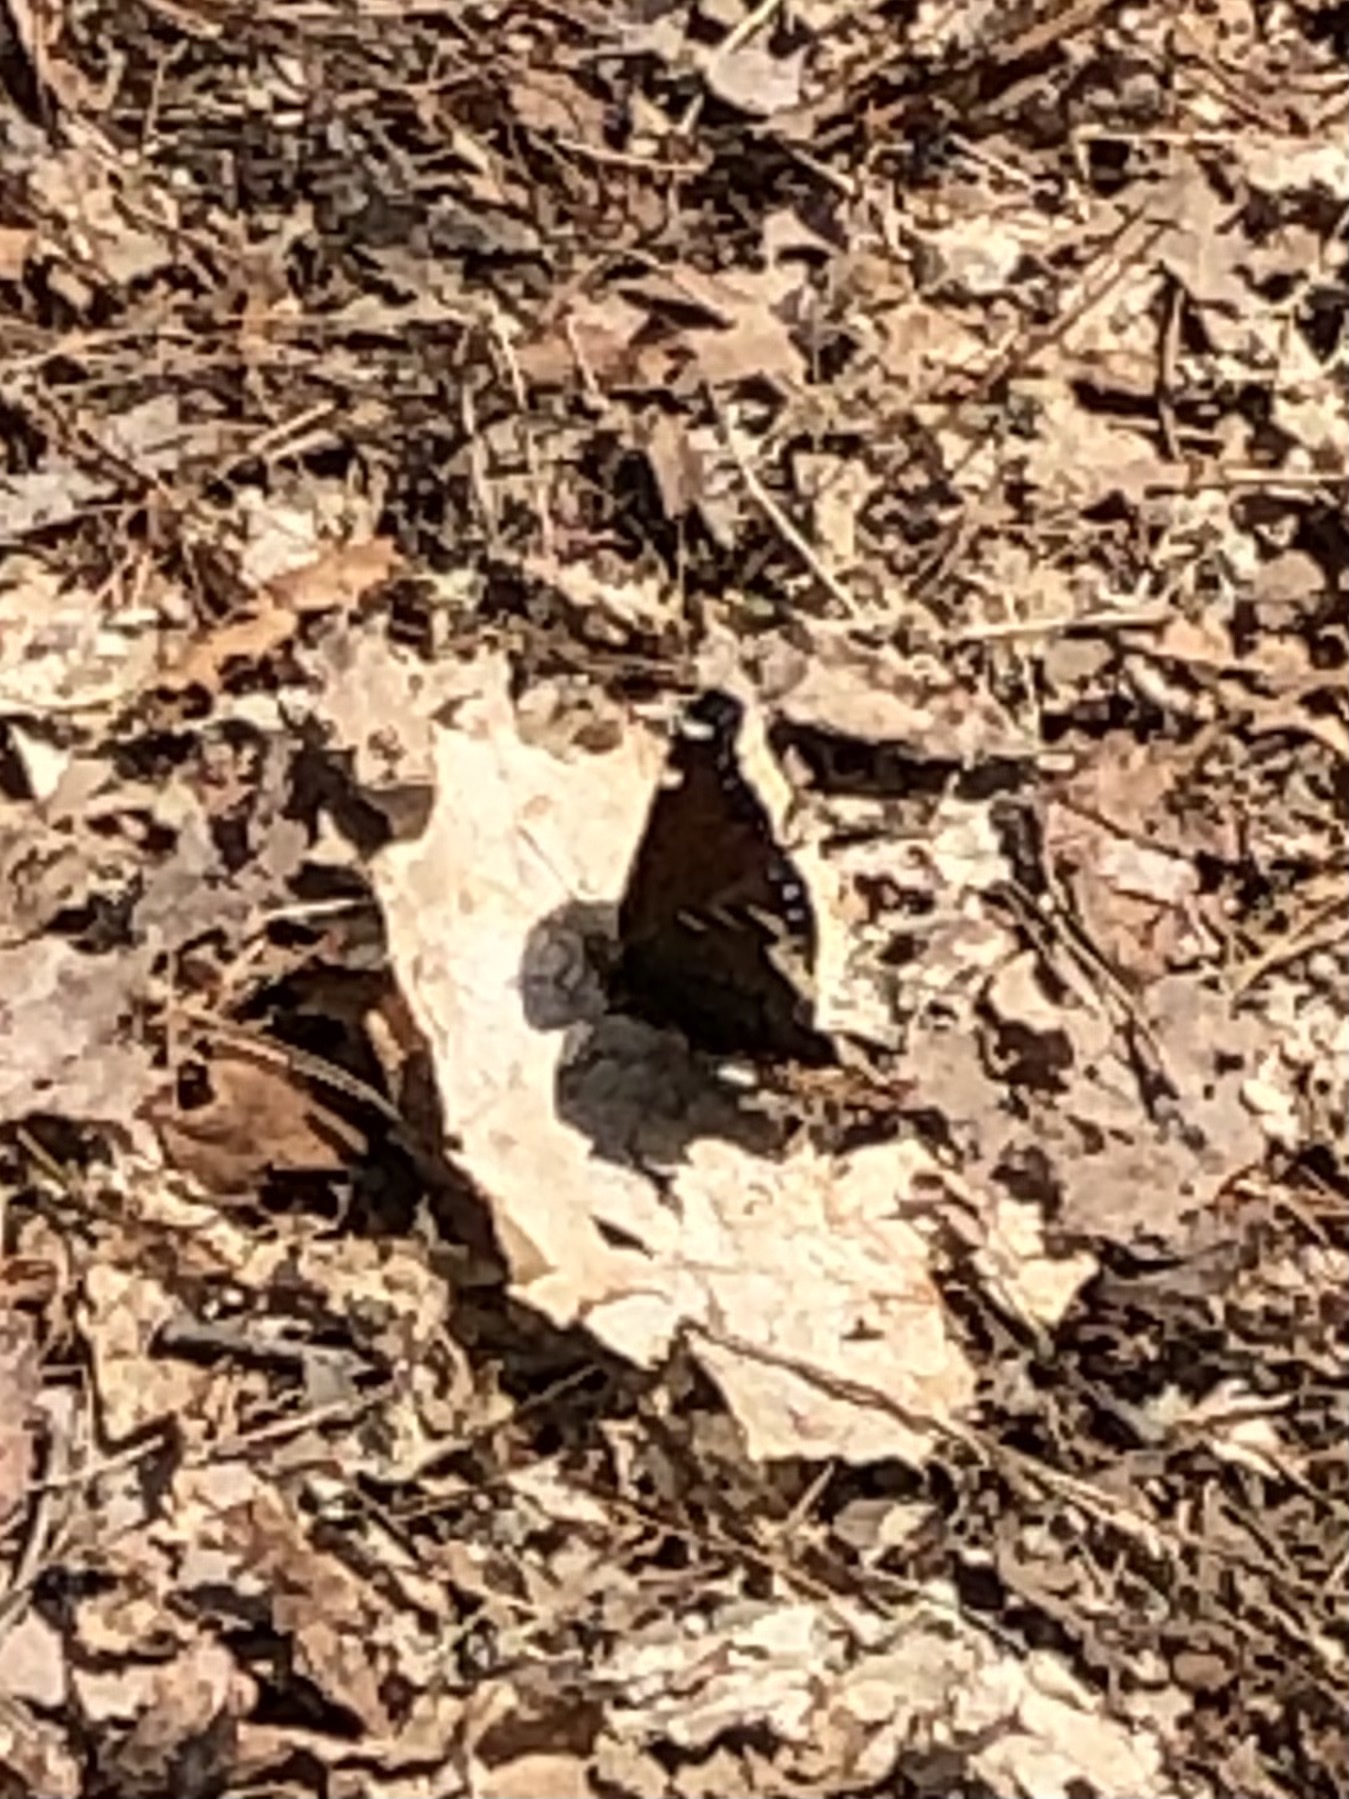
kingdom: Animalia
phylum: Arthropoda
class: Insecta
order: Lepidoptera
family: Nymphalidae
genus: Nymphalis
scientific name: Nymphalis antiopa
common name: Camberwell beauty
